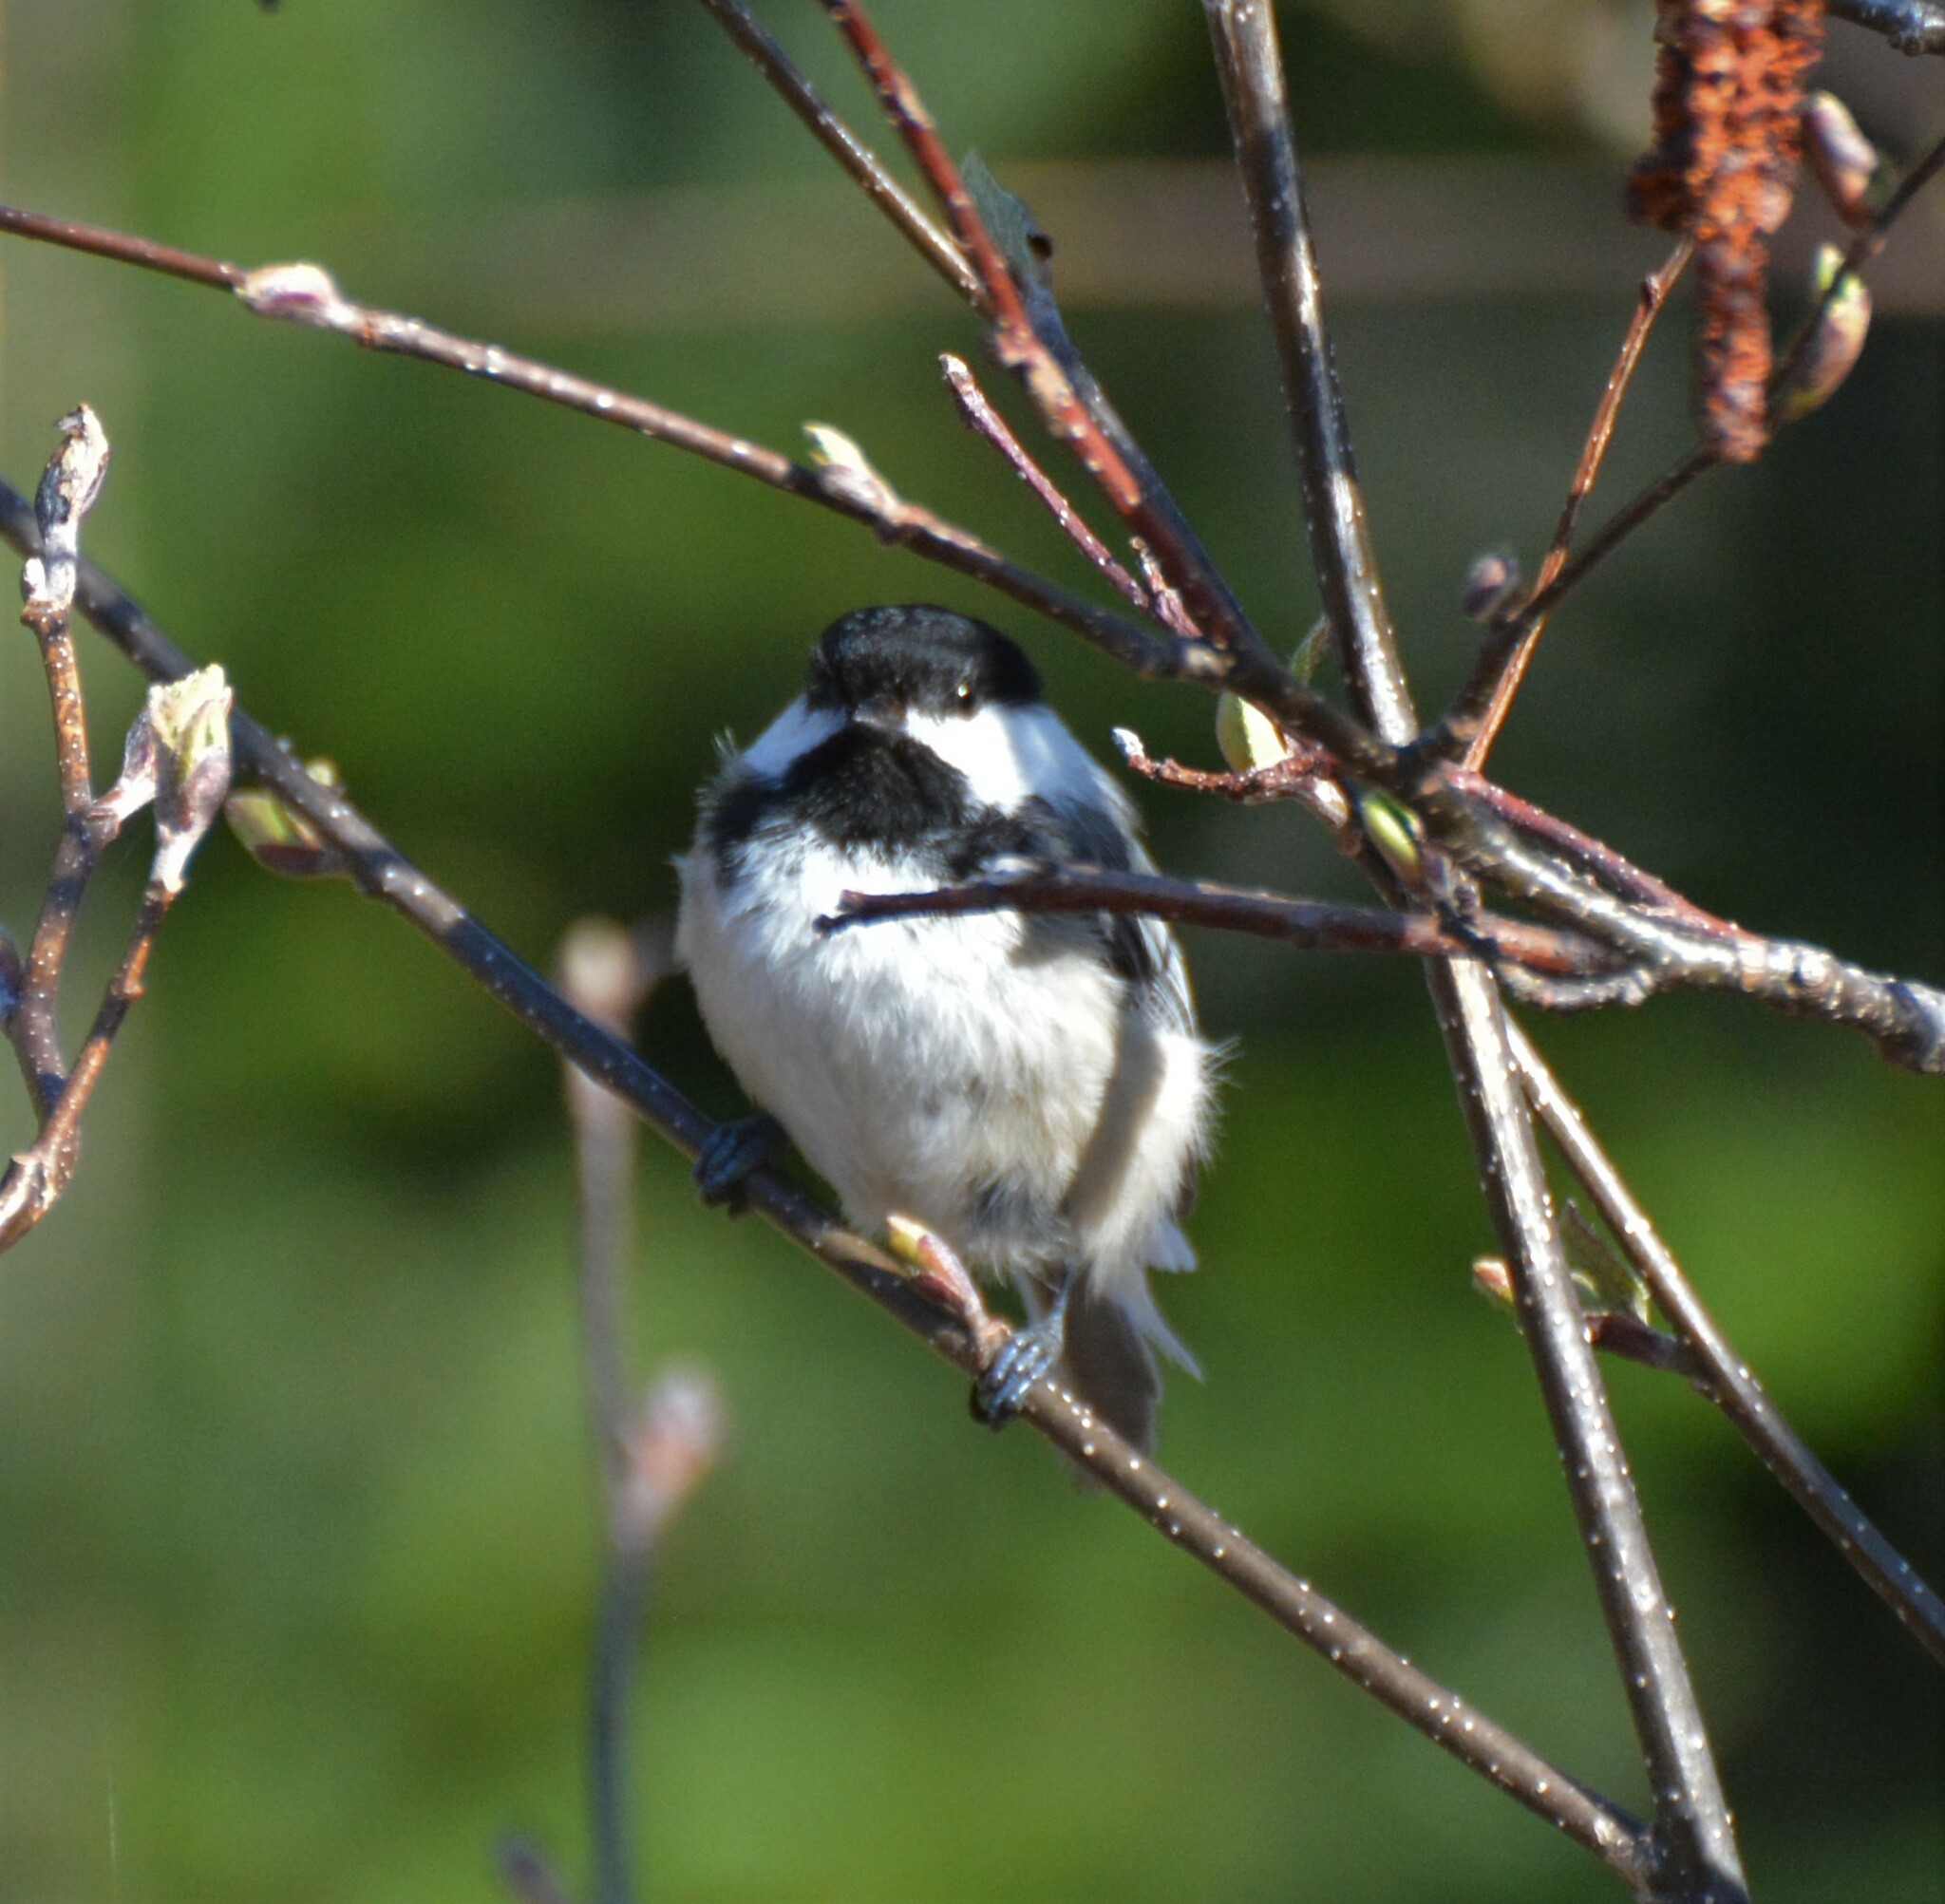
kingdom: Animalia
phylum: Chordata
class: Aves
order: Passeriformes
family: Paridae
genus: Poecile
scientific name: Poecile atricapillus
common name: Black-capped chickadee
